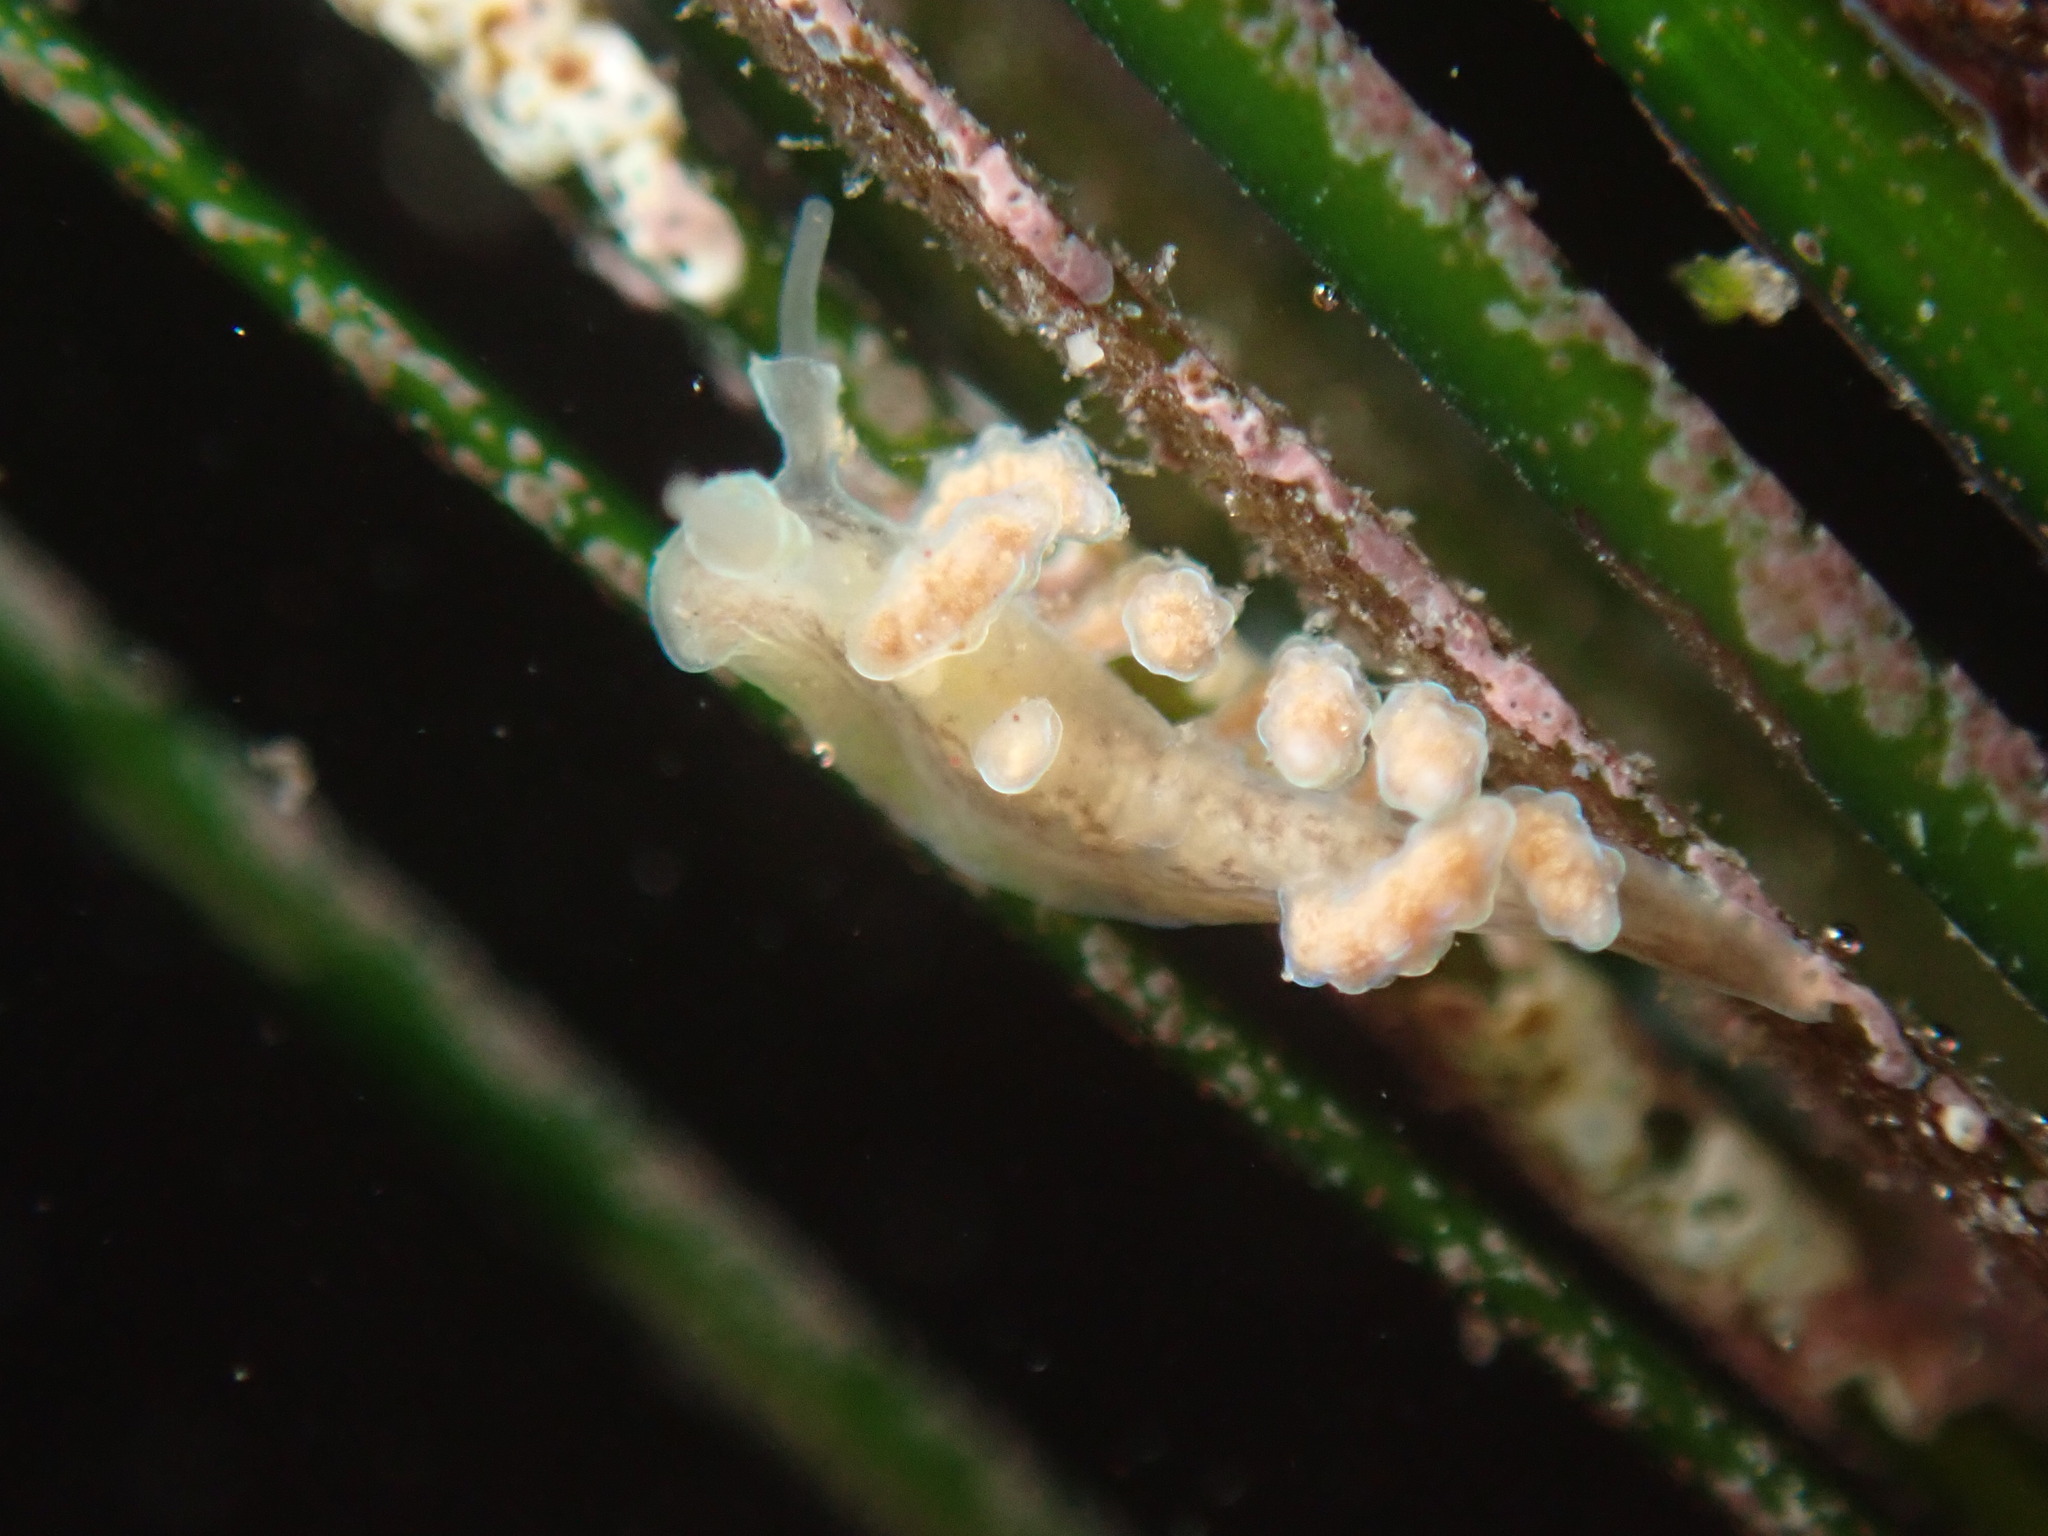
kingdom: Animalia
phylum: Mollusca
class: Gastropoda
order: Nudibranchia
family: Dotidae
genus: Doto
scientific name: Doto columbiana
